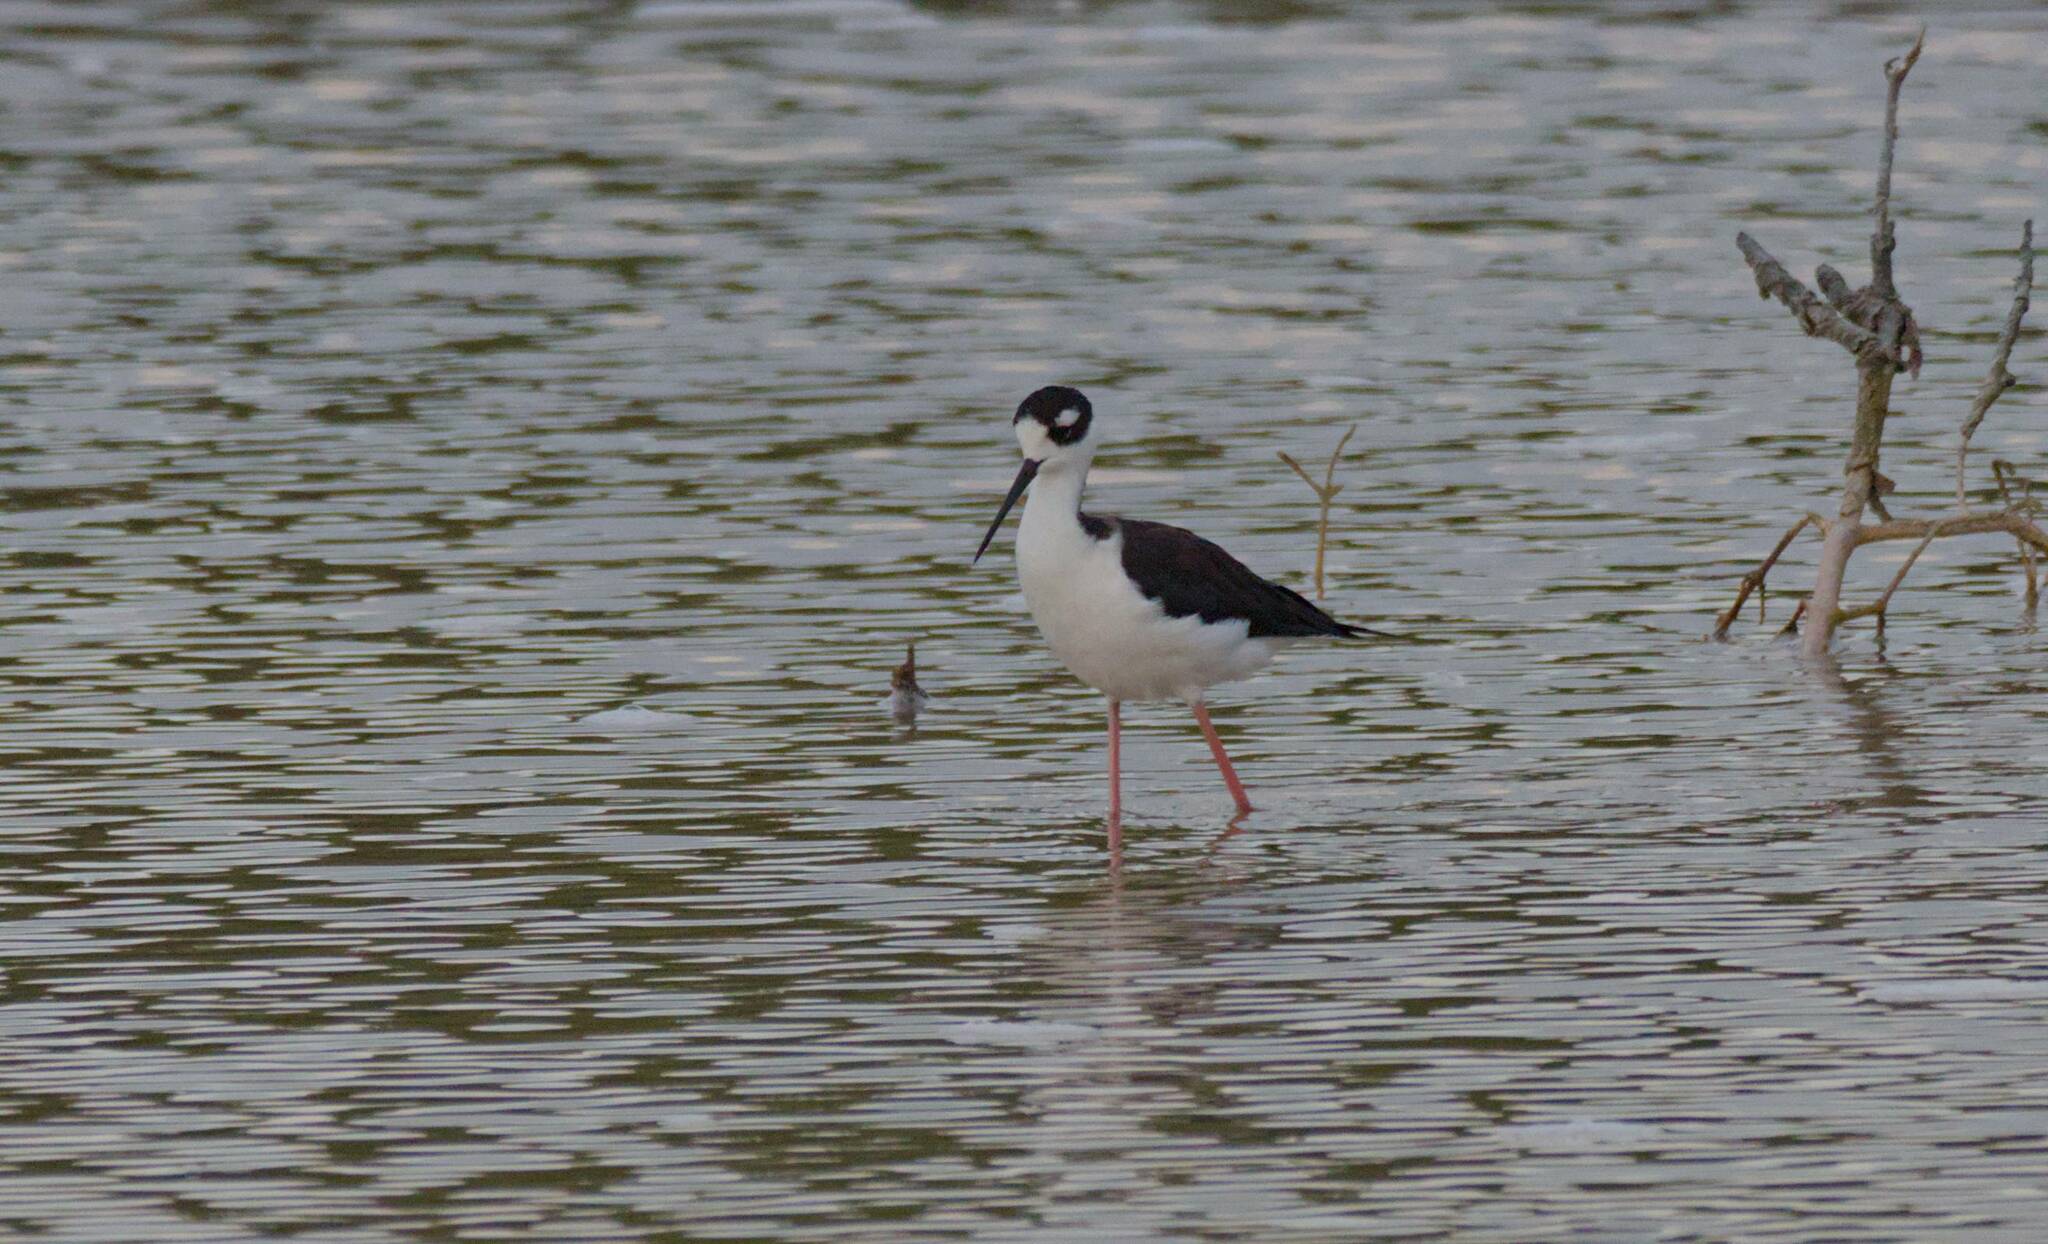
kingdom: Animalia
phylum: Chordata
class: Aves
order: Charadriiformes
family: Recurvirostridae
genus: Himantopus
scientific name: Himantopus mexicanus
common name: Black-necked stilt
